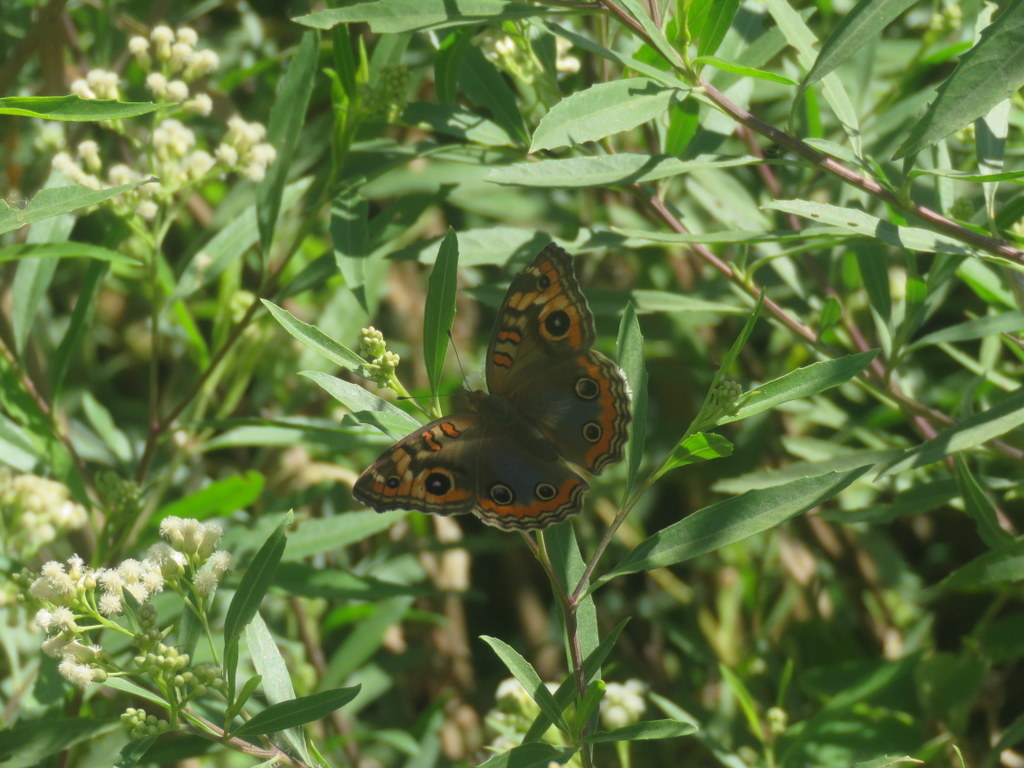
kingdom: Animalia
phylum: Arthropoda
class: Insecta
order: Lepidoptera
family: Nymphalidae
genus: Junonia
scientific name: Junonia lavinia
